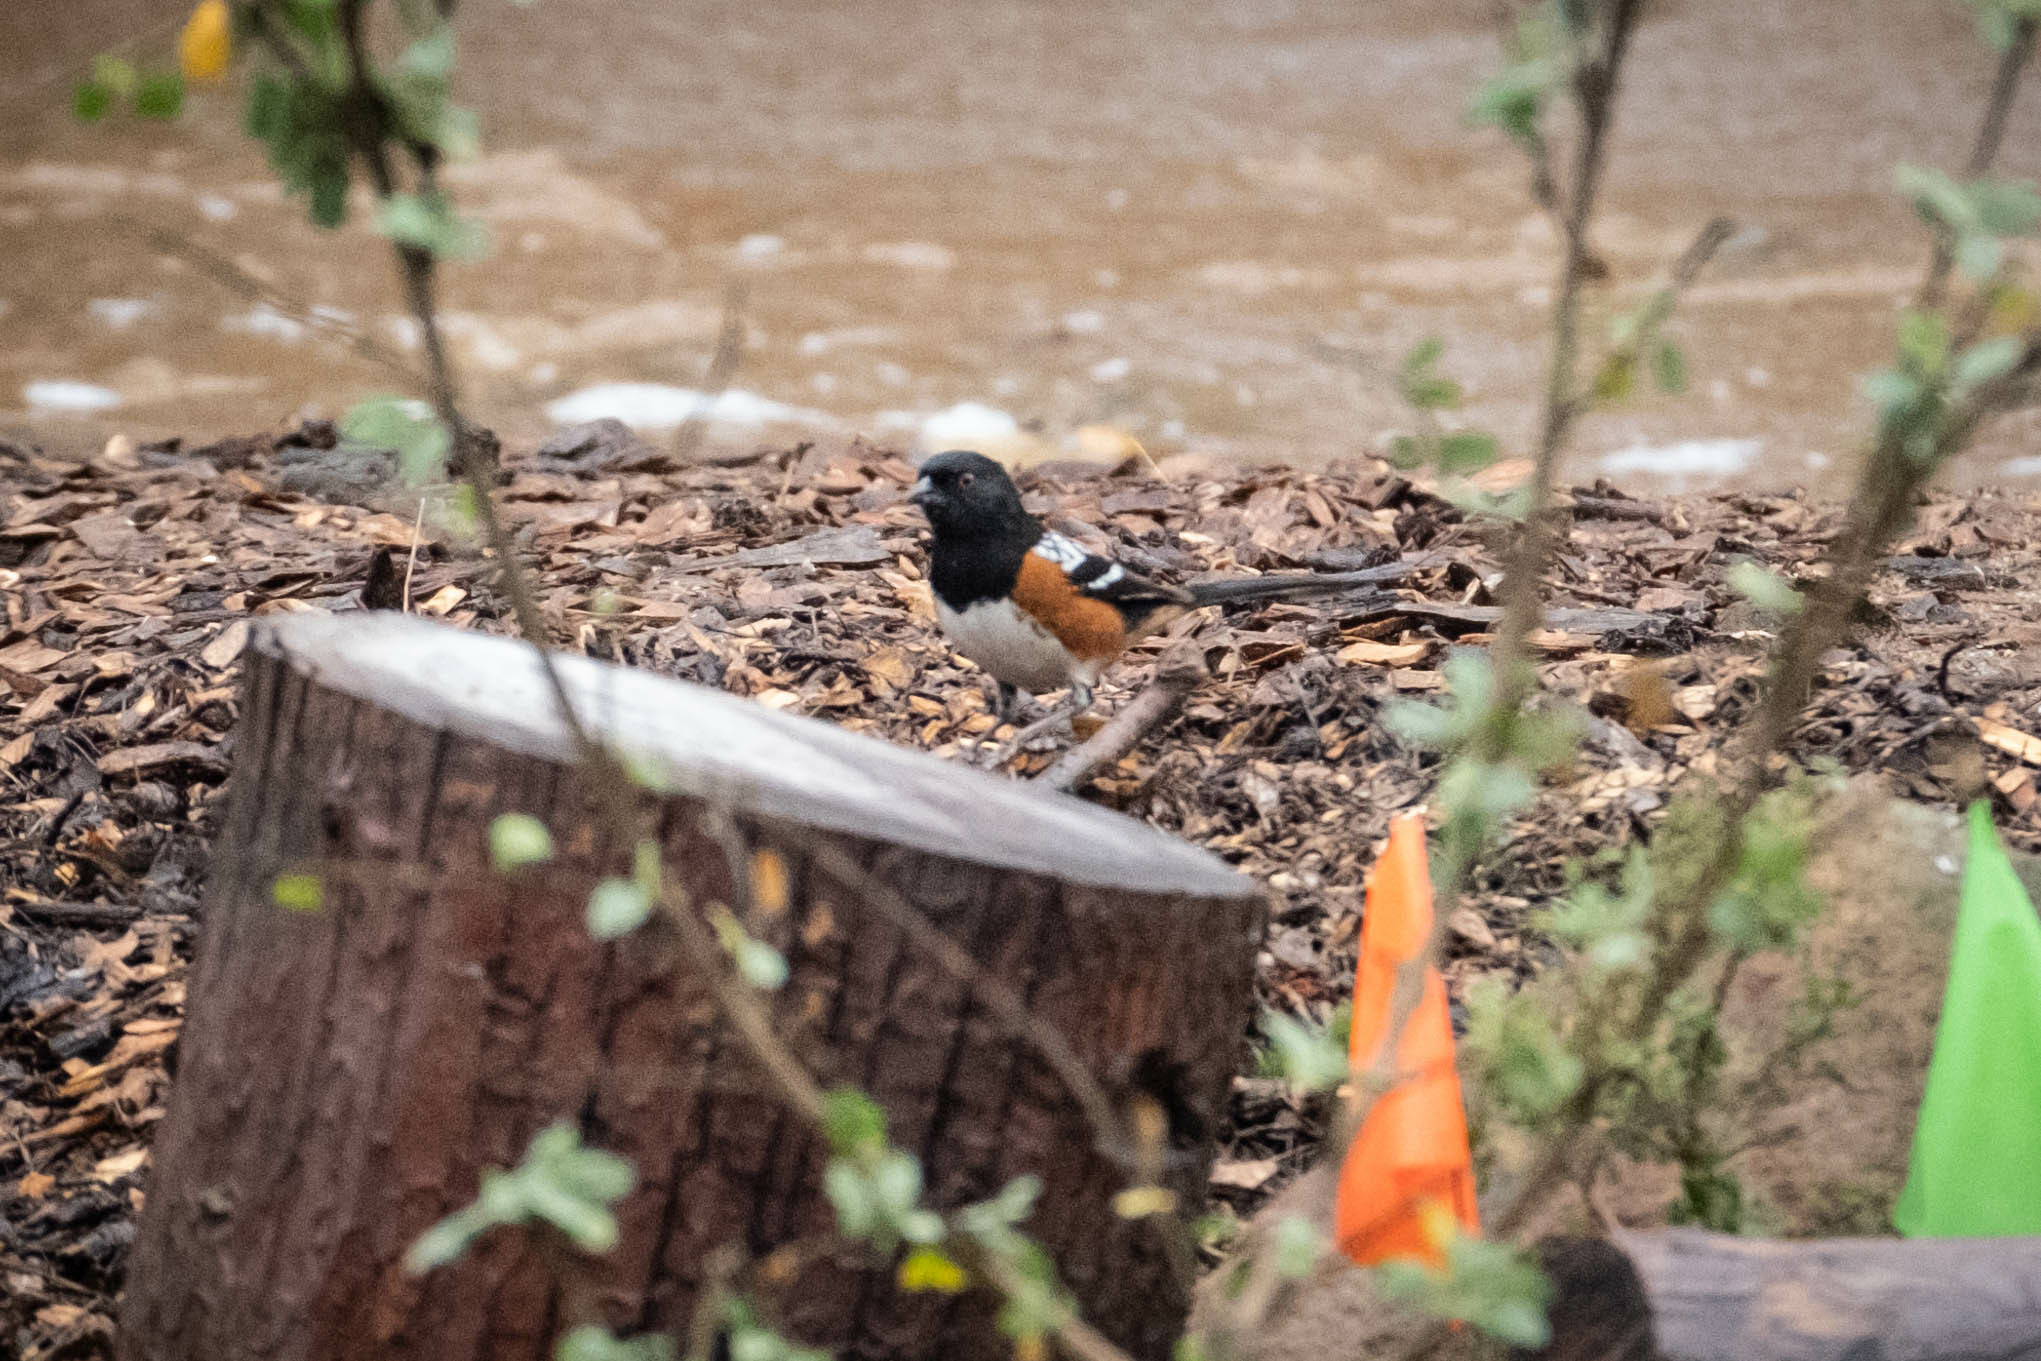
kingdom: Animalia
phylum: Chordata
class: Aves
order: Passeriformes
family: Passerellidae
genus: Pipilo
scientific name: Pipilo maculatus
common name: Spotted towhee
